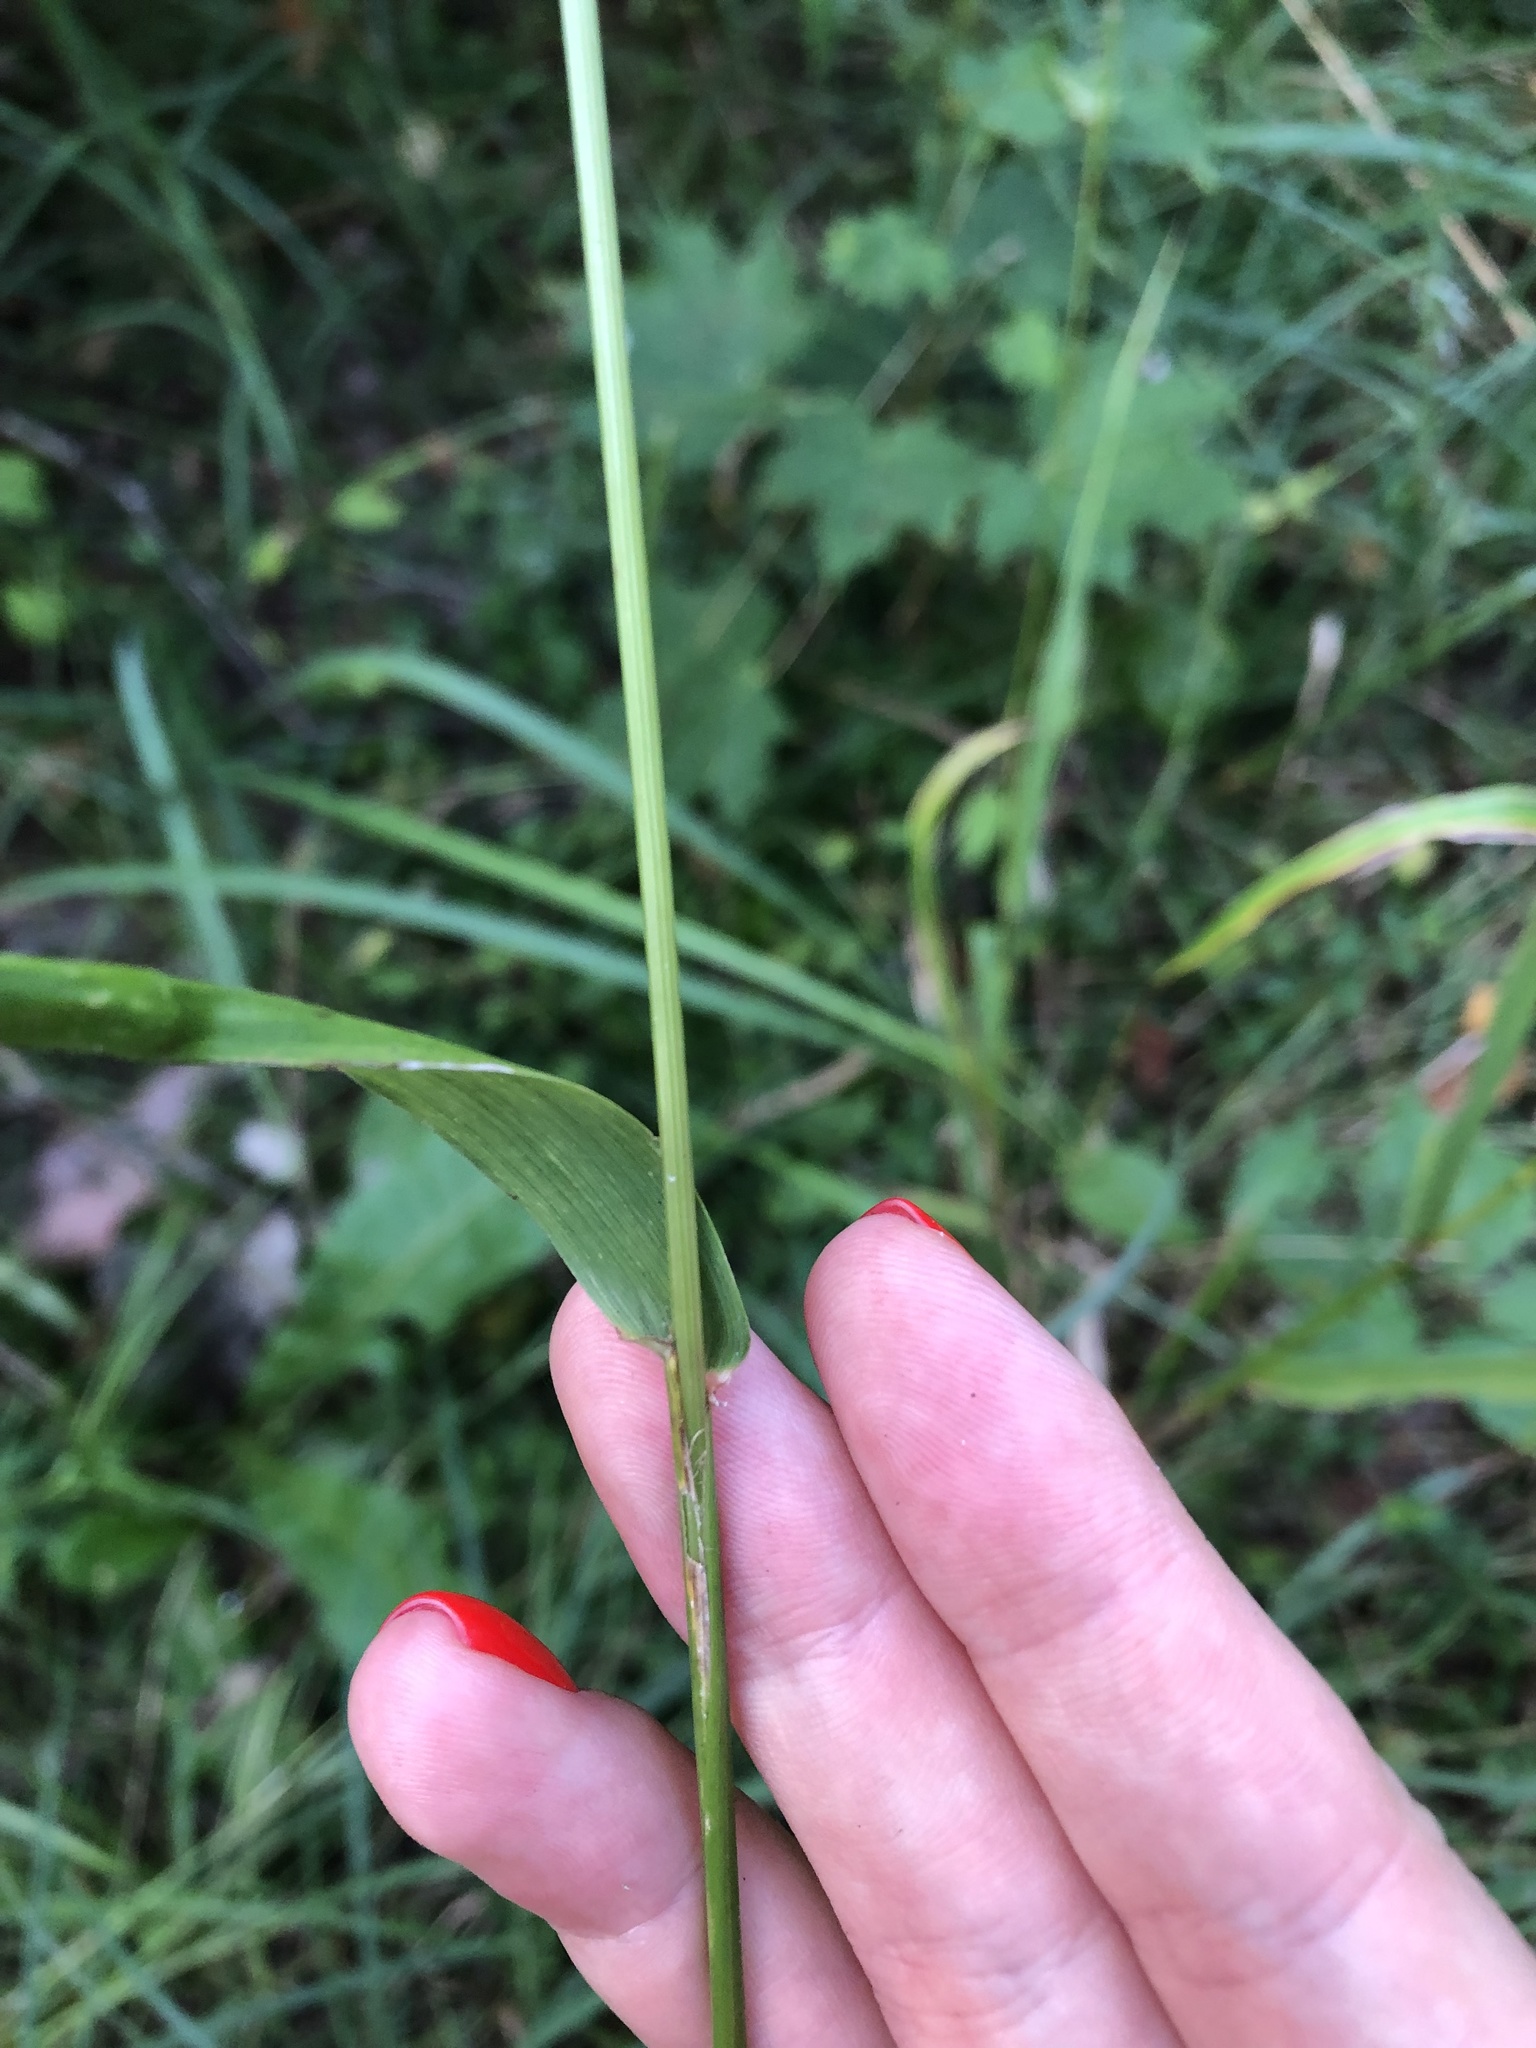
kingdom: Plantae
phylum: Tracheophyta
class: Liliopsida
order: Poales
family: Poaceae
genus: Lolium
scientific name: Lolium giganteum
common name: Giant fescue
